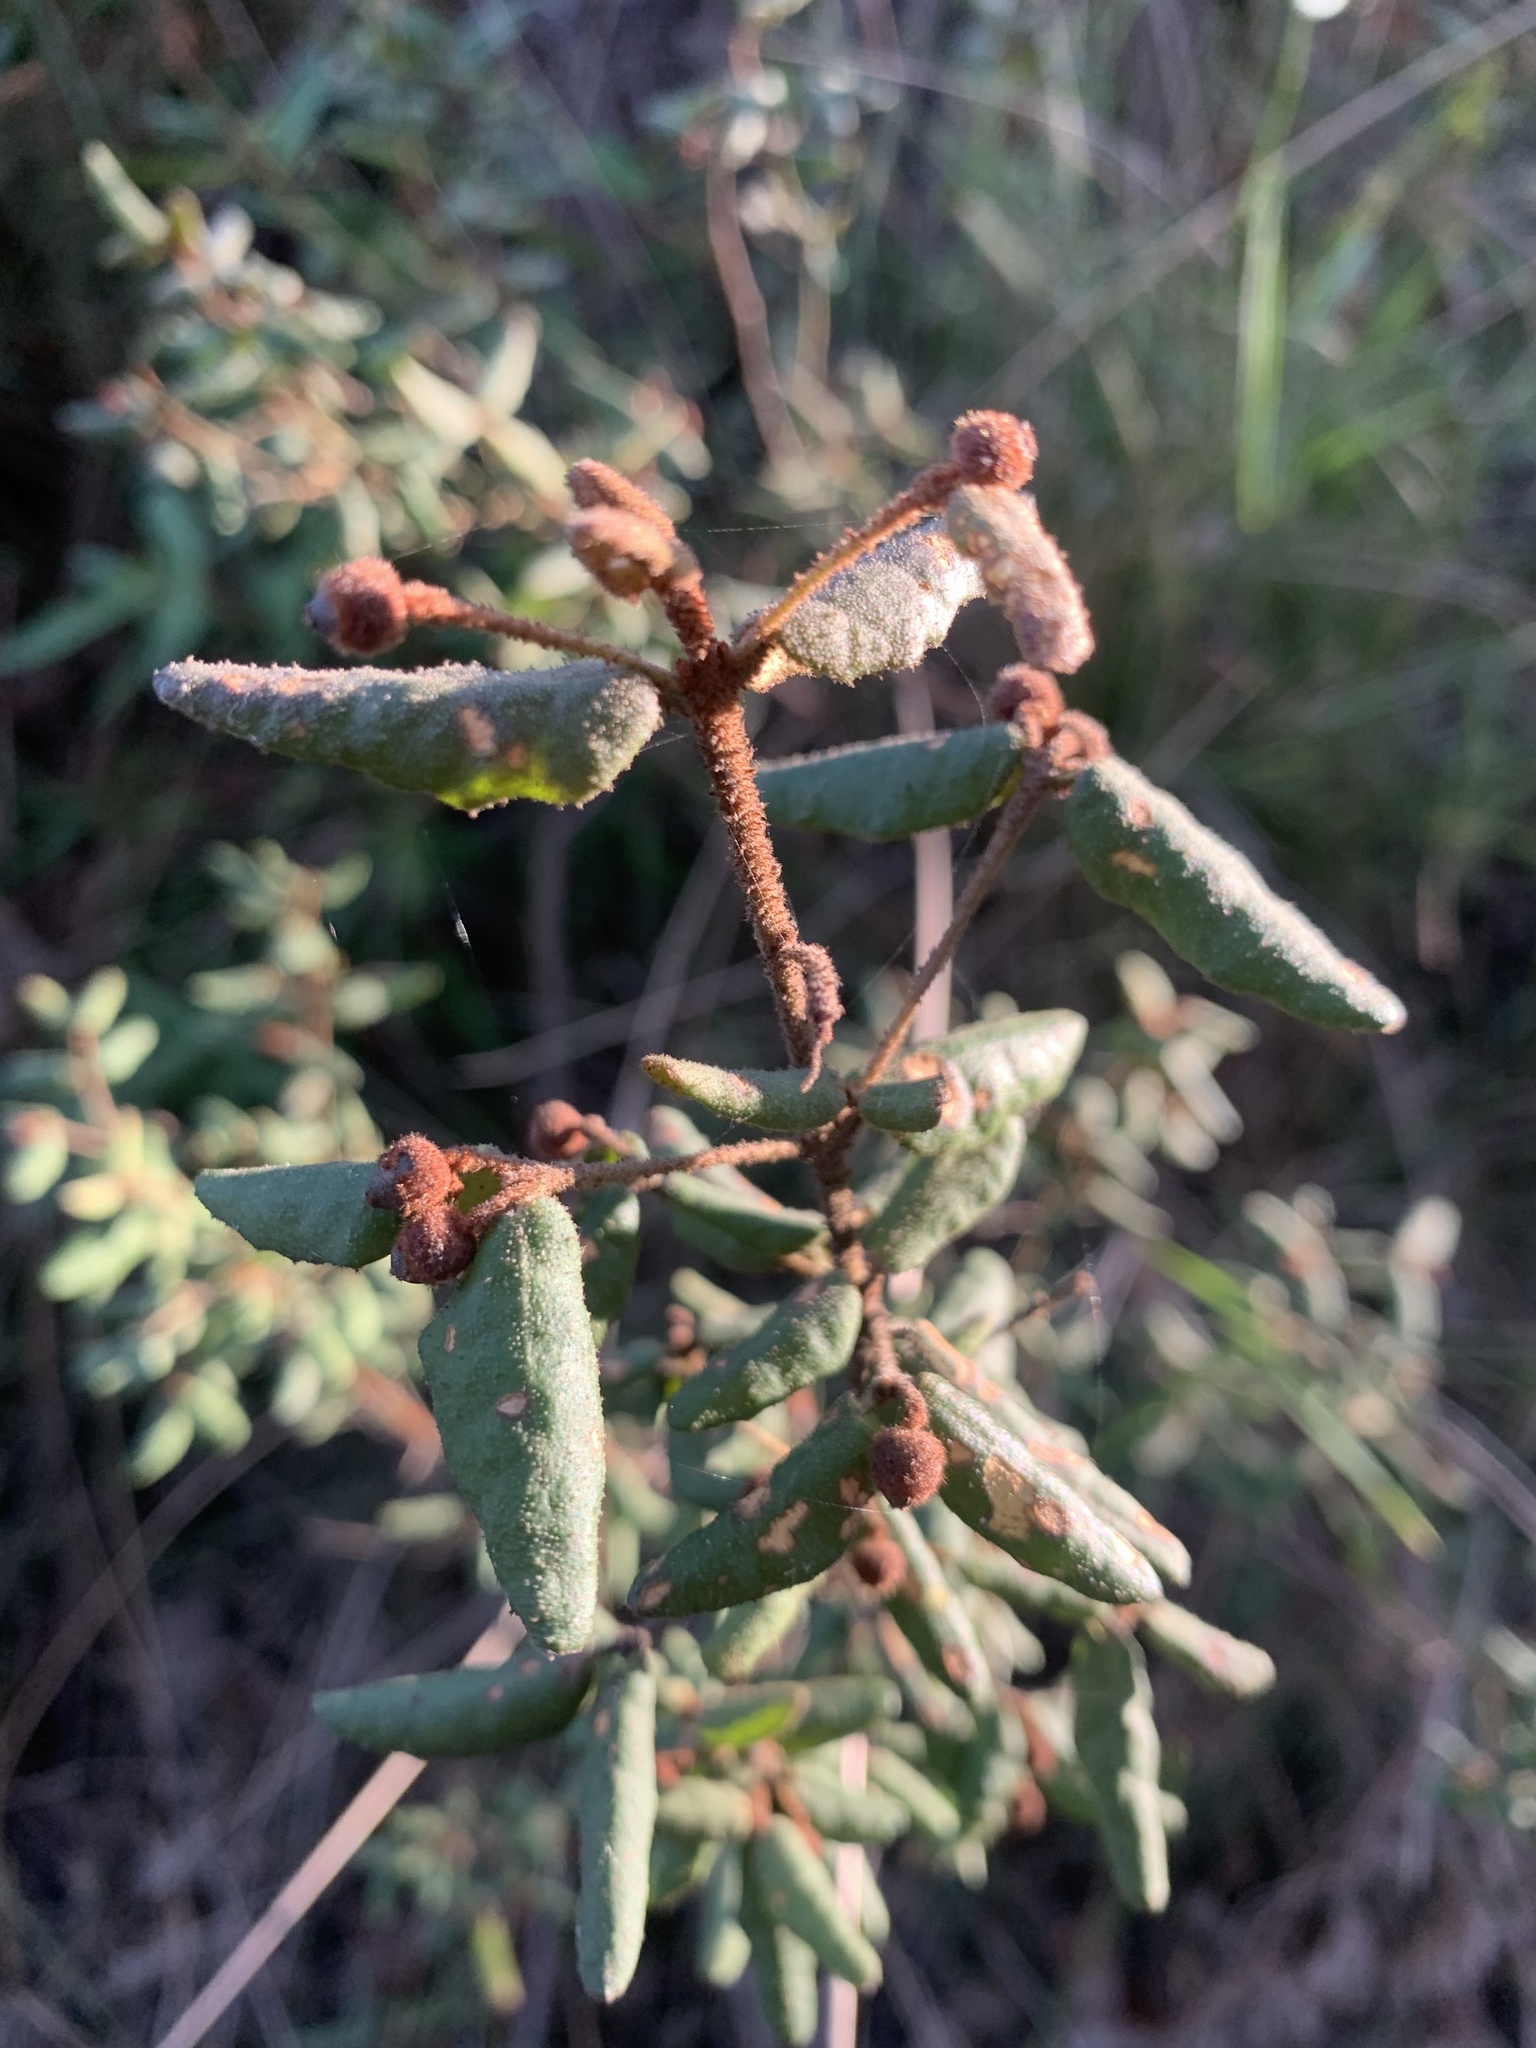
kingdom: Plantae
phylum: Tracheophyta
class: Magnoliopsida
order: Sapindales
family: Rutaceae
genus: Correa
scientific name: Correa reflexa
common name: Common correa
